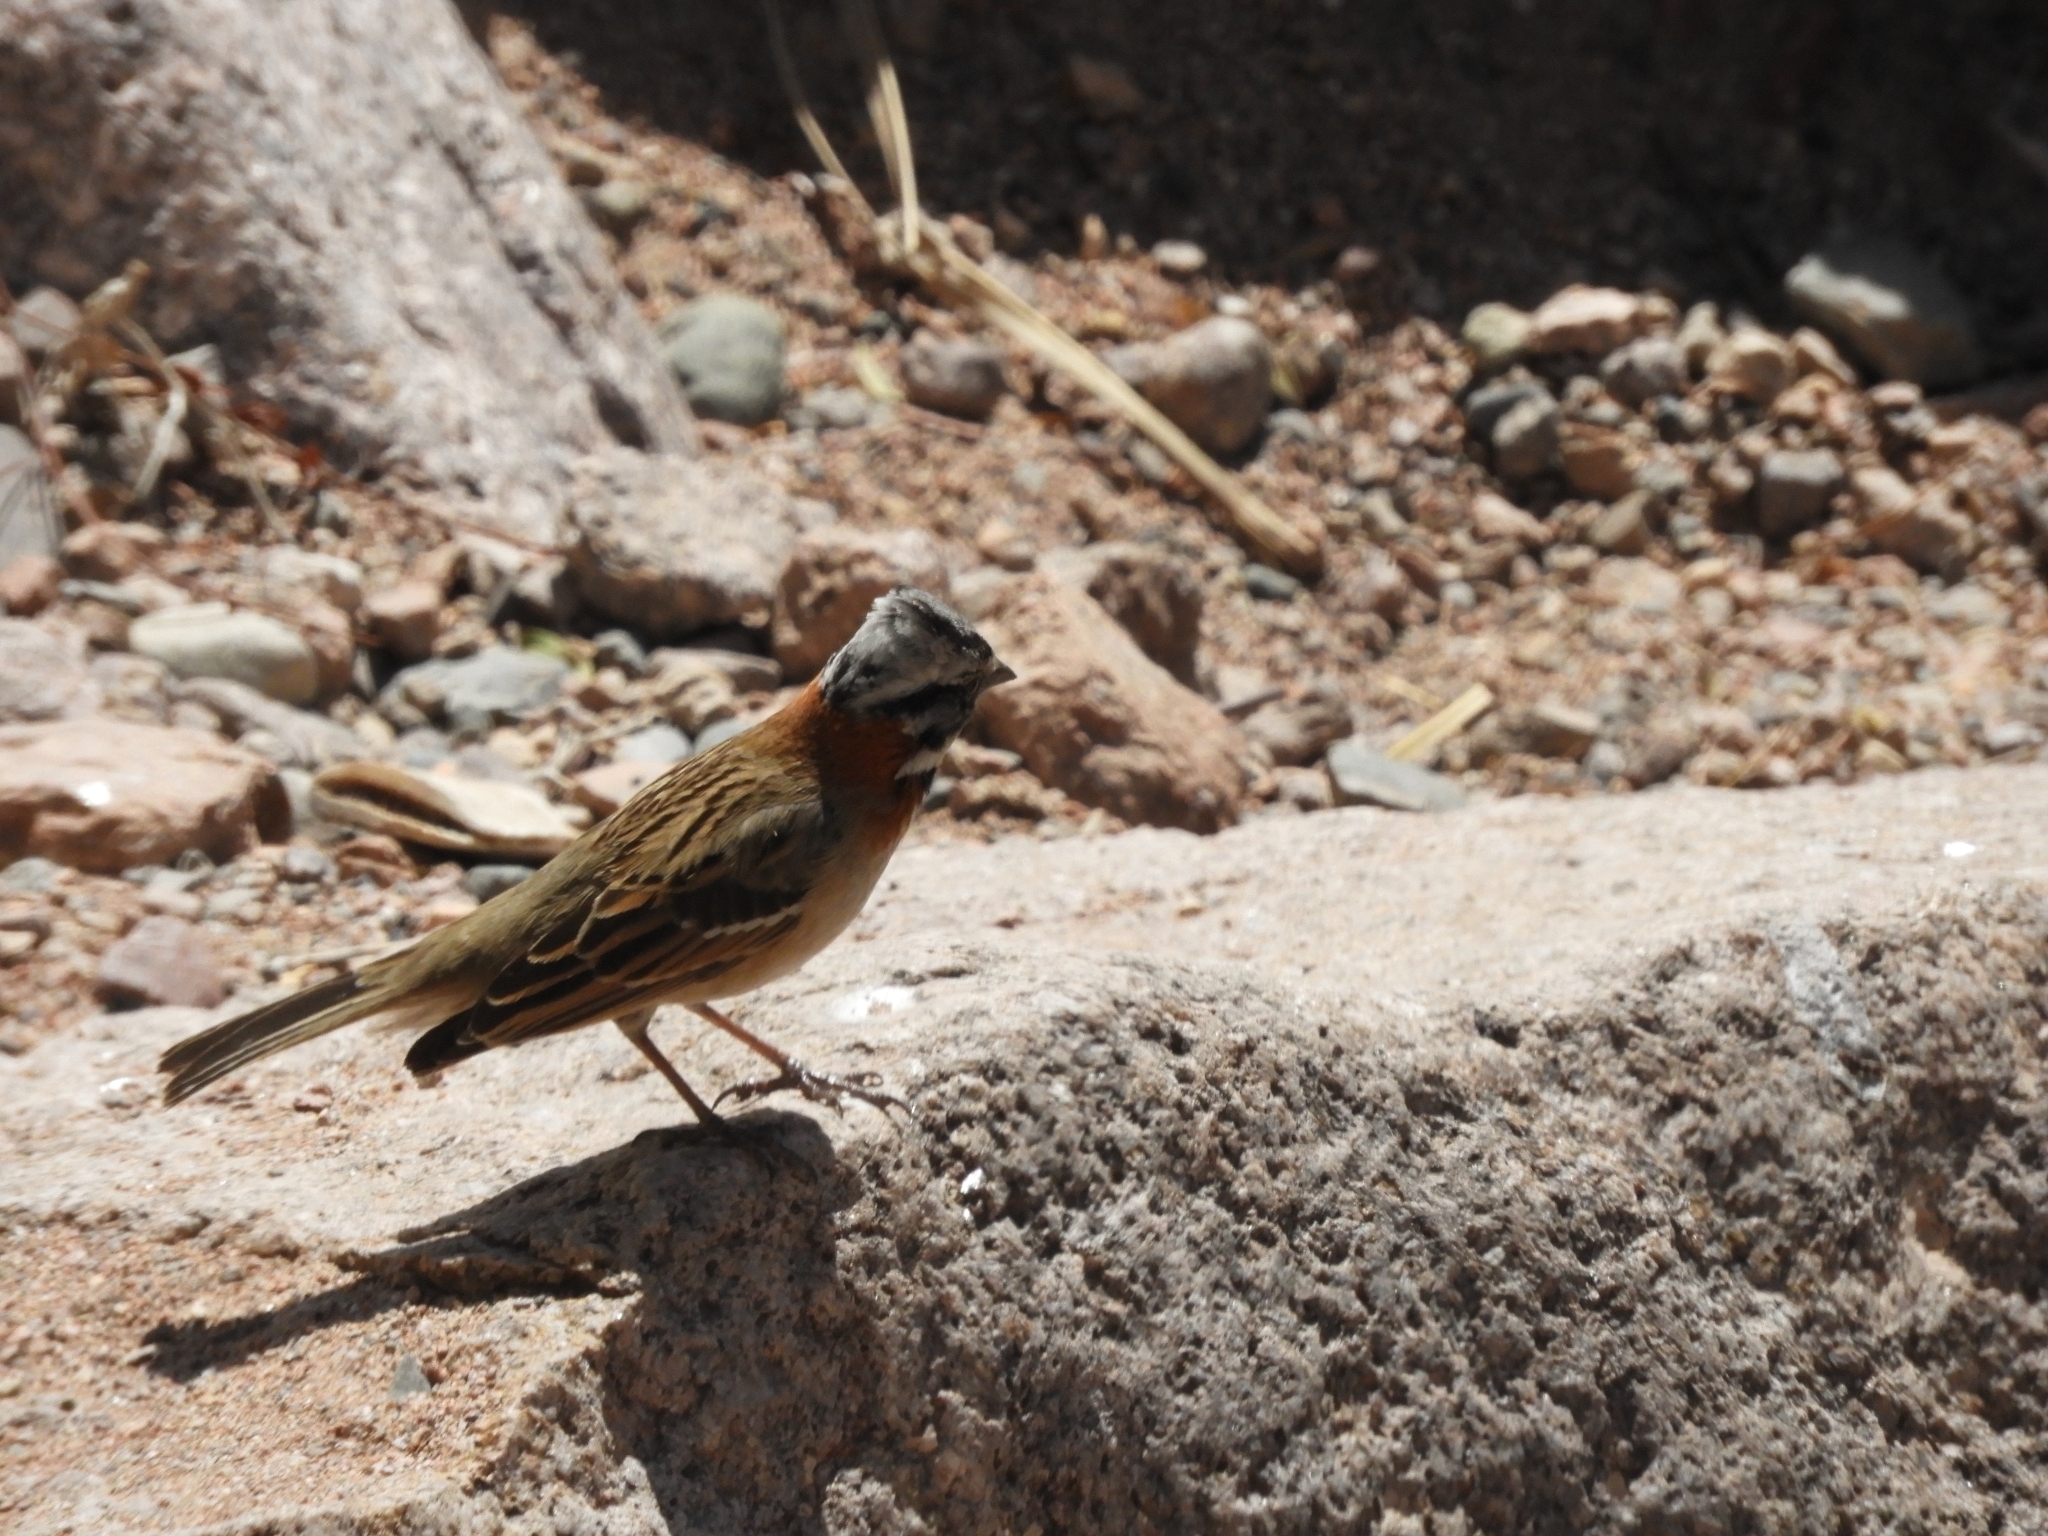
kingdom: Animalia
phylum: Chordata
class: Aves
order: Passeriformes
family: Passerellidae
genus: Zonotrichia
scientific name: Zonotrichia capensis
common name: Rufous-collared sparrow
